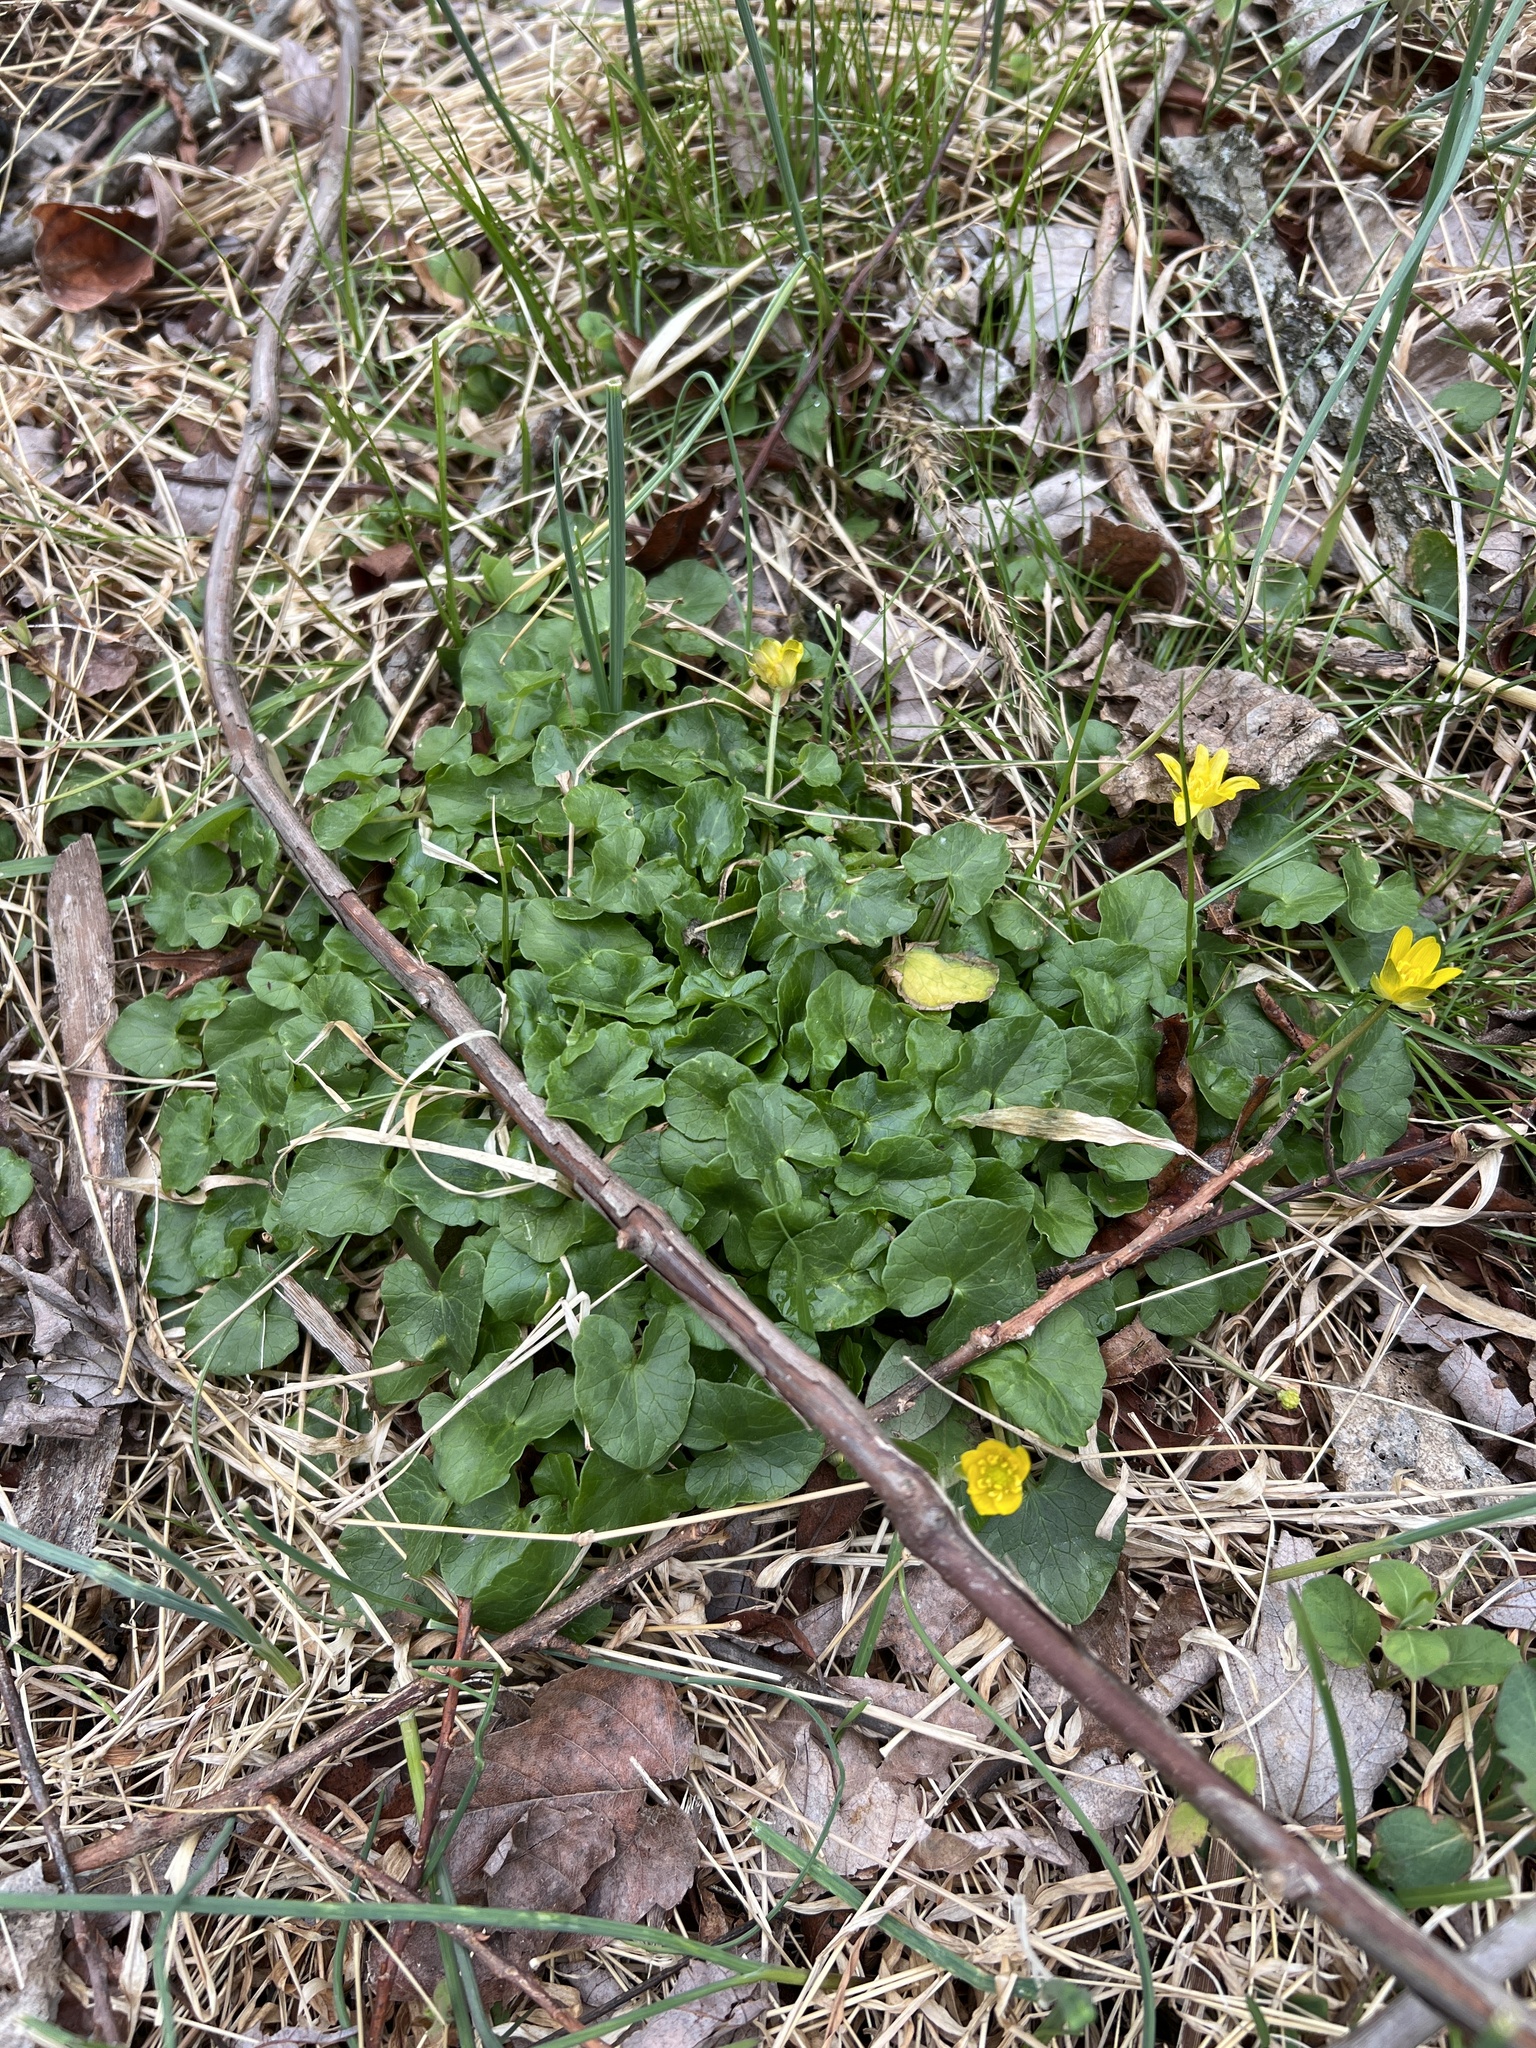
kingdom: Plantae
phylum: Tracheophyta
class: Magnoliopsida
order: Ranunculales
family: Ranunculaceae
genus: Ficaria
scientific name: Ficaria verna
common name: Lesser celandine
